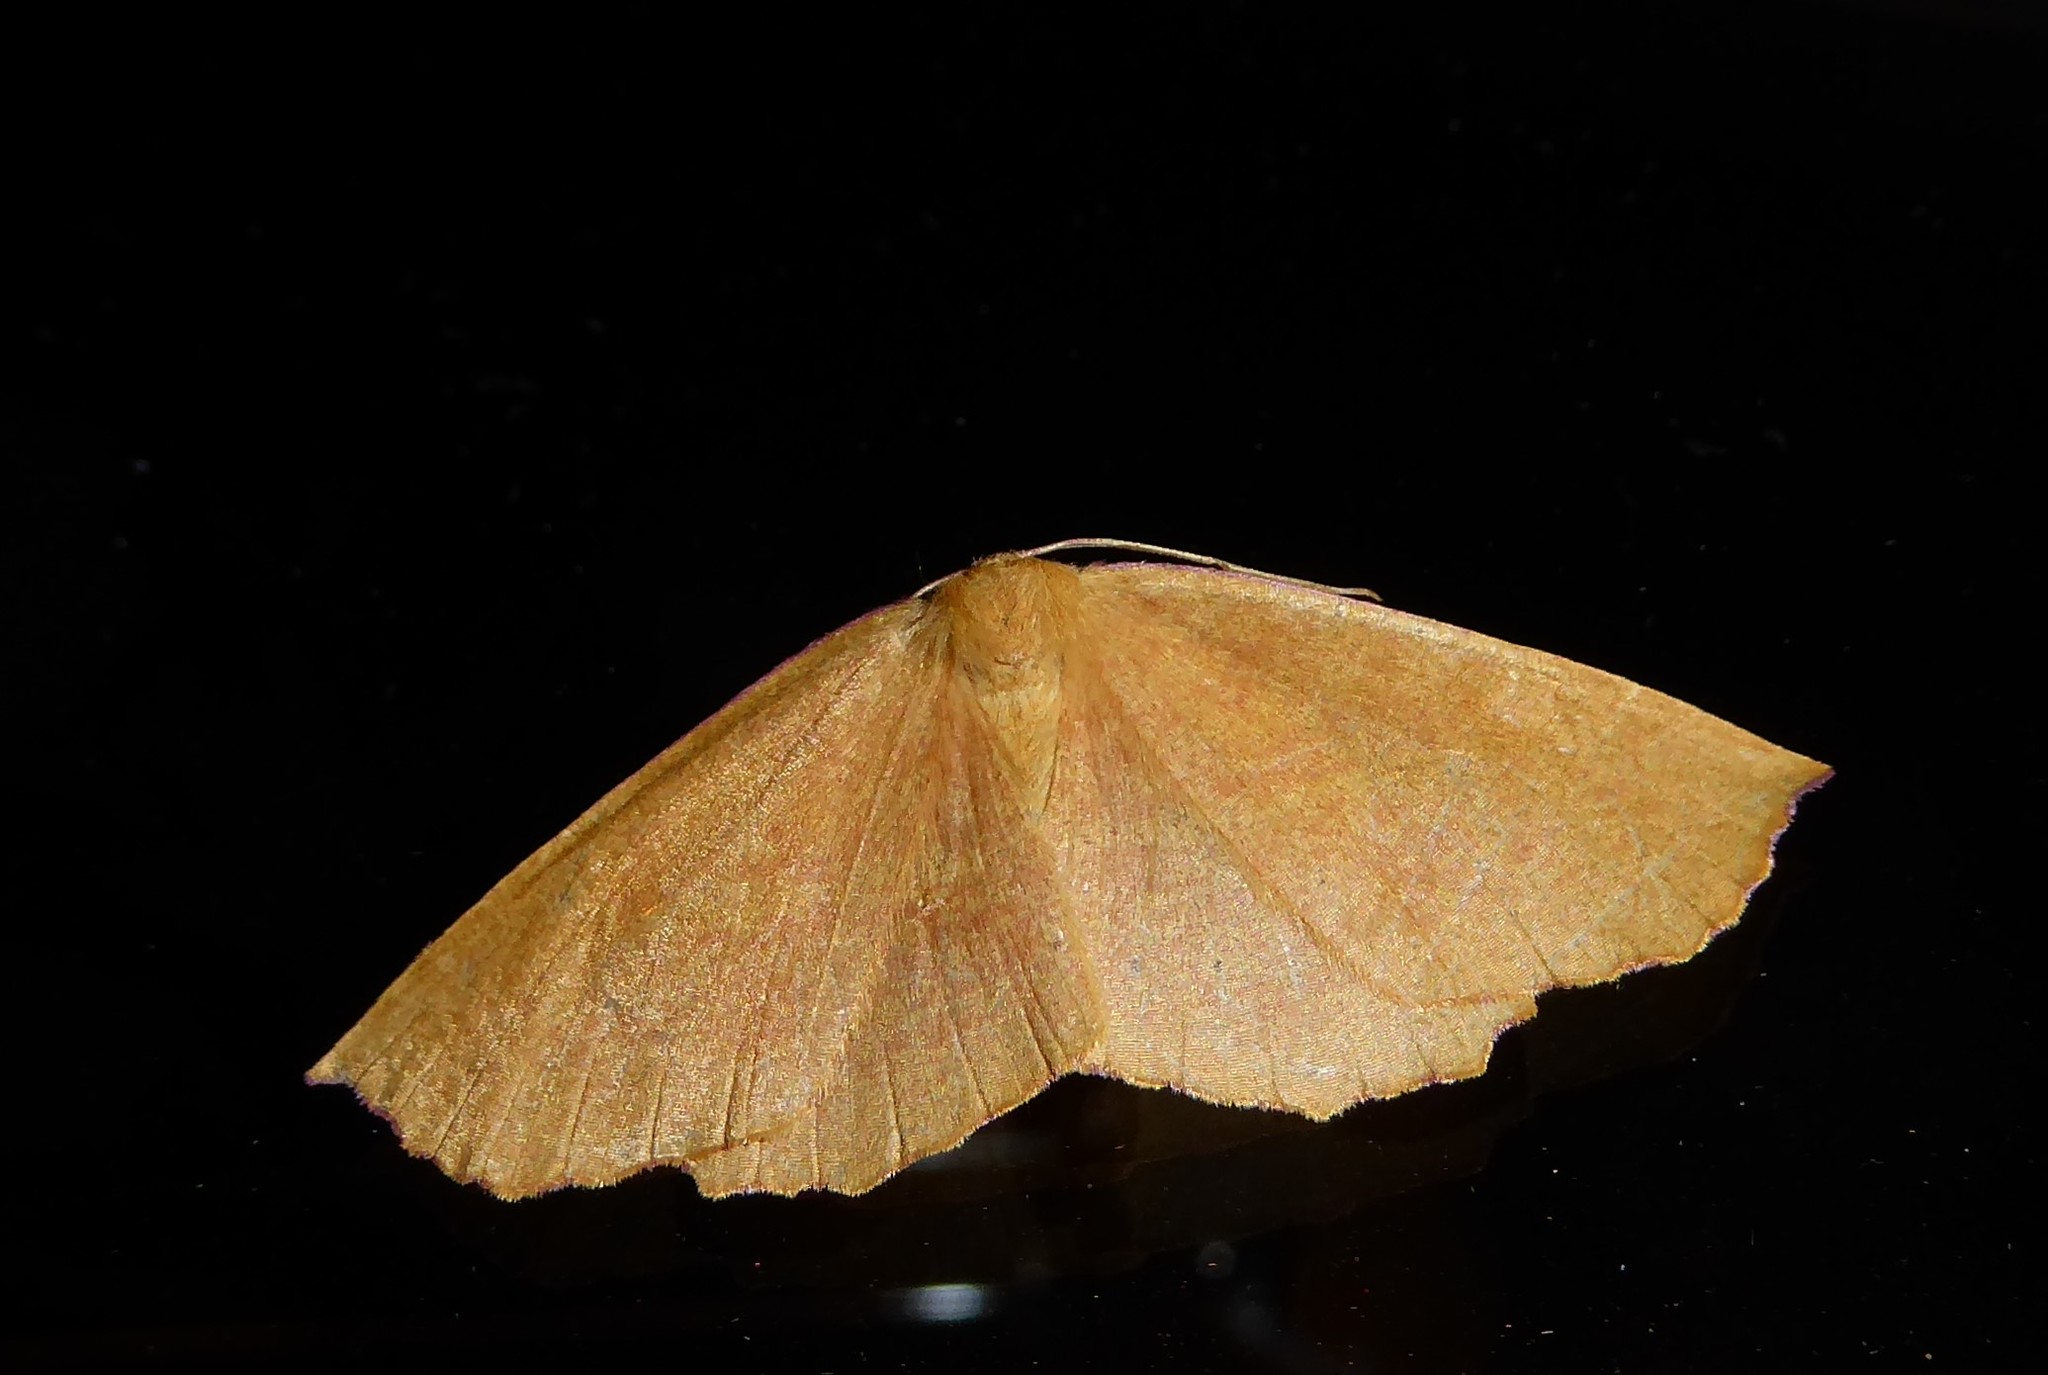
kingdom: Animalia
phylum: Arthropoda
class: Insecta
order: Lepidoptera
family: Geometridae
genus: Xyridacma
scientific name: Xyridacma alectoraria
